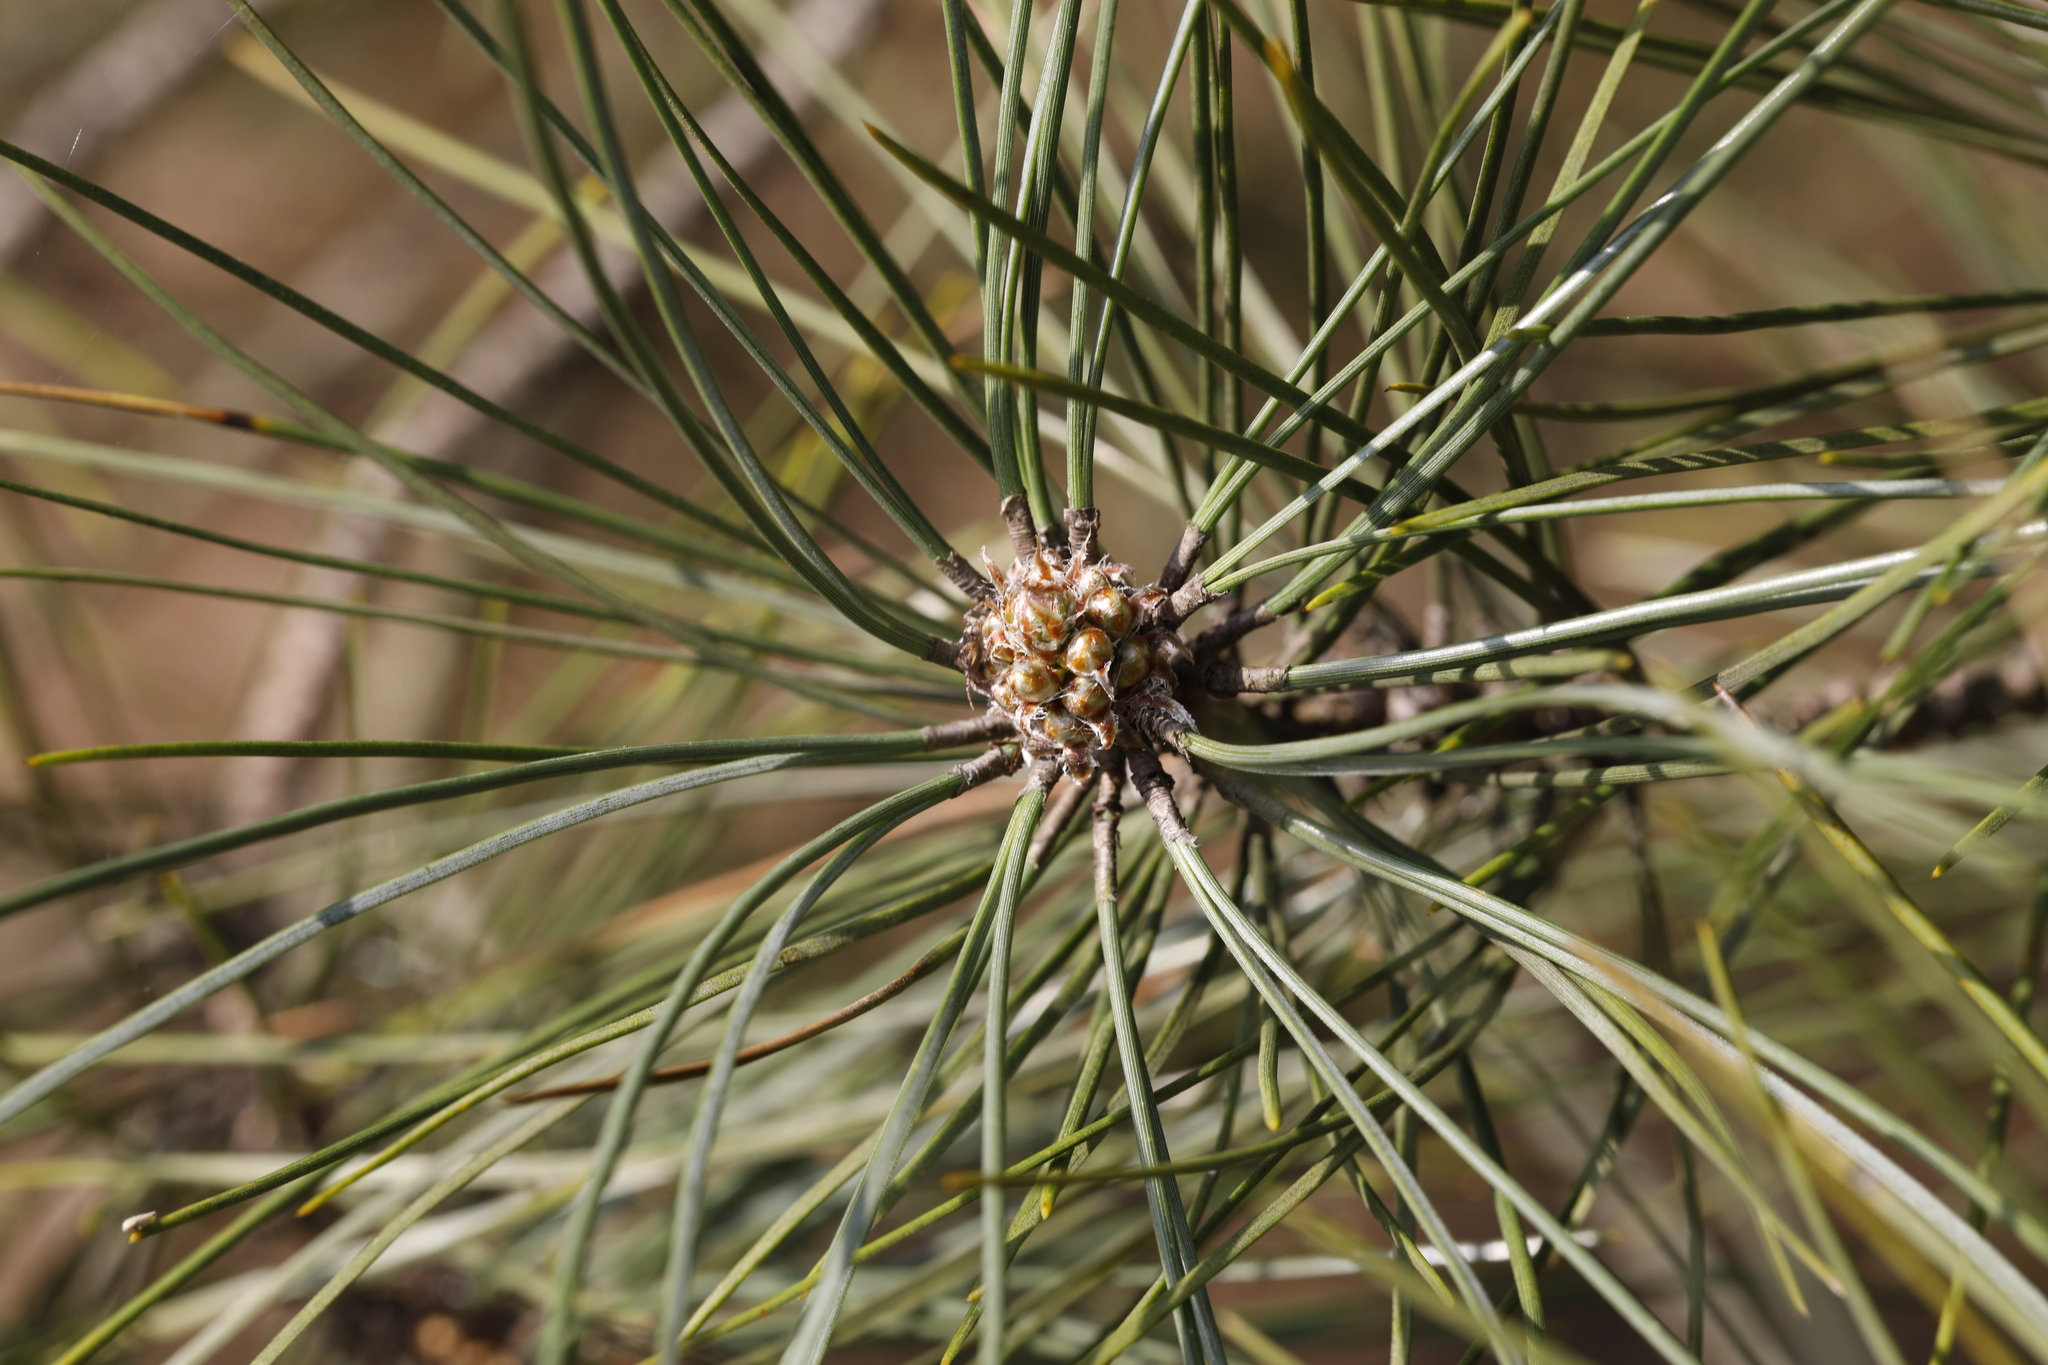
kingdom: Plantae
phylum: Tracheophyta
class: Pinopsida
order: Pinales
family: Pinaceae
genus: Pinus
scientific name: Pinus sylvestris
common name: Scots pine
